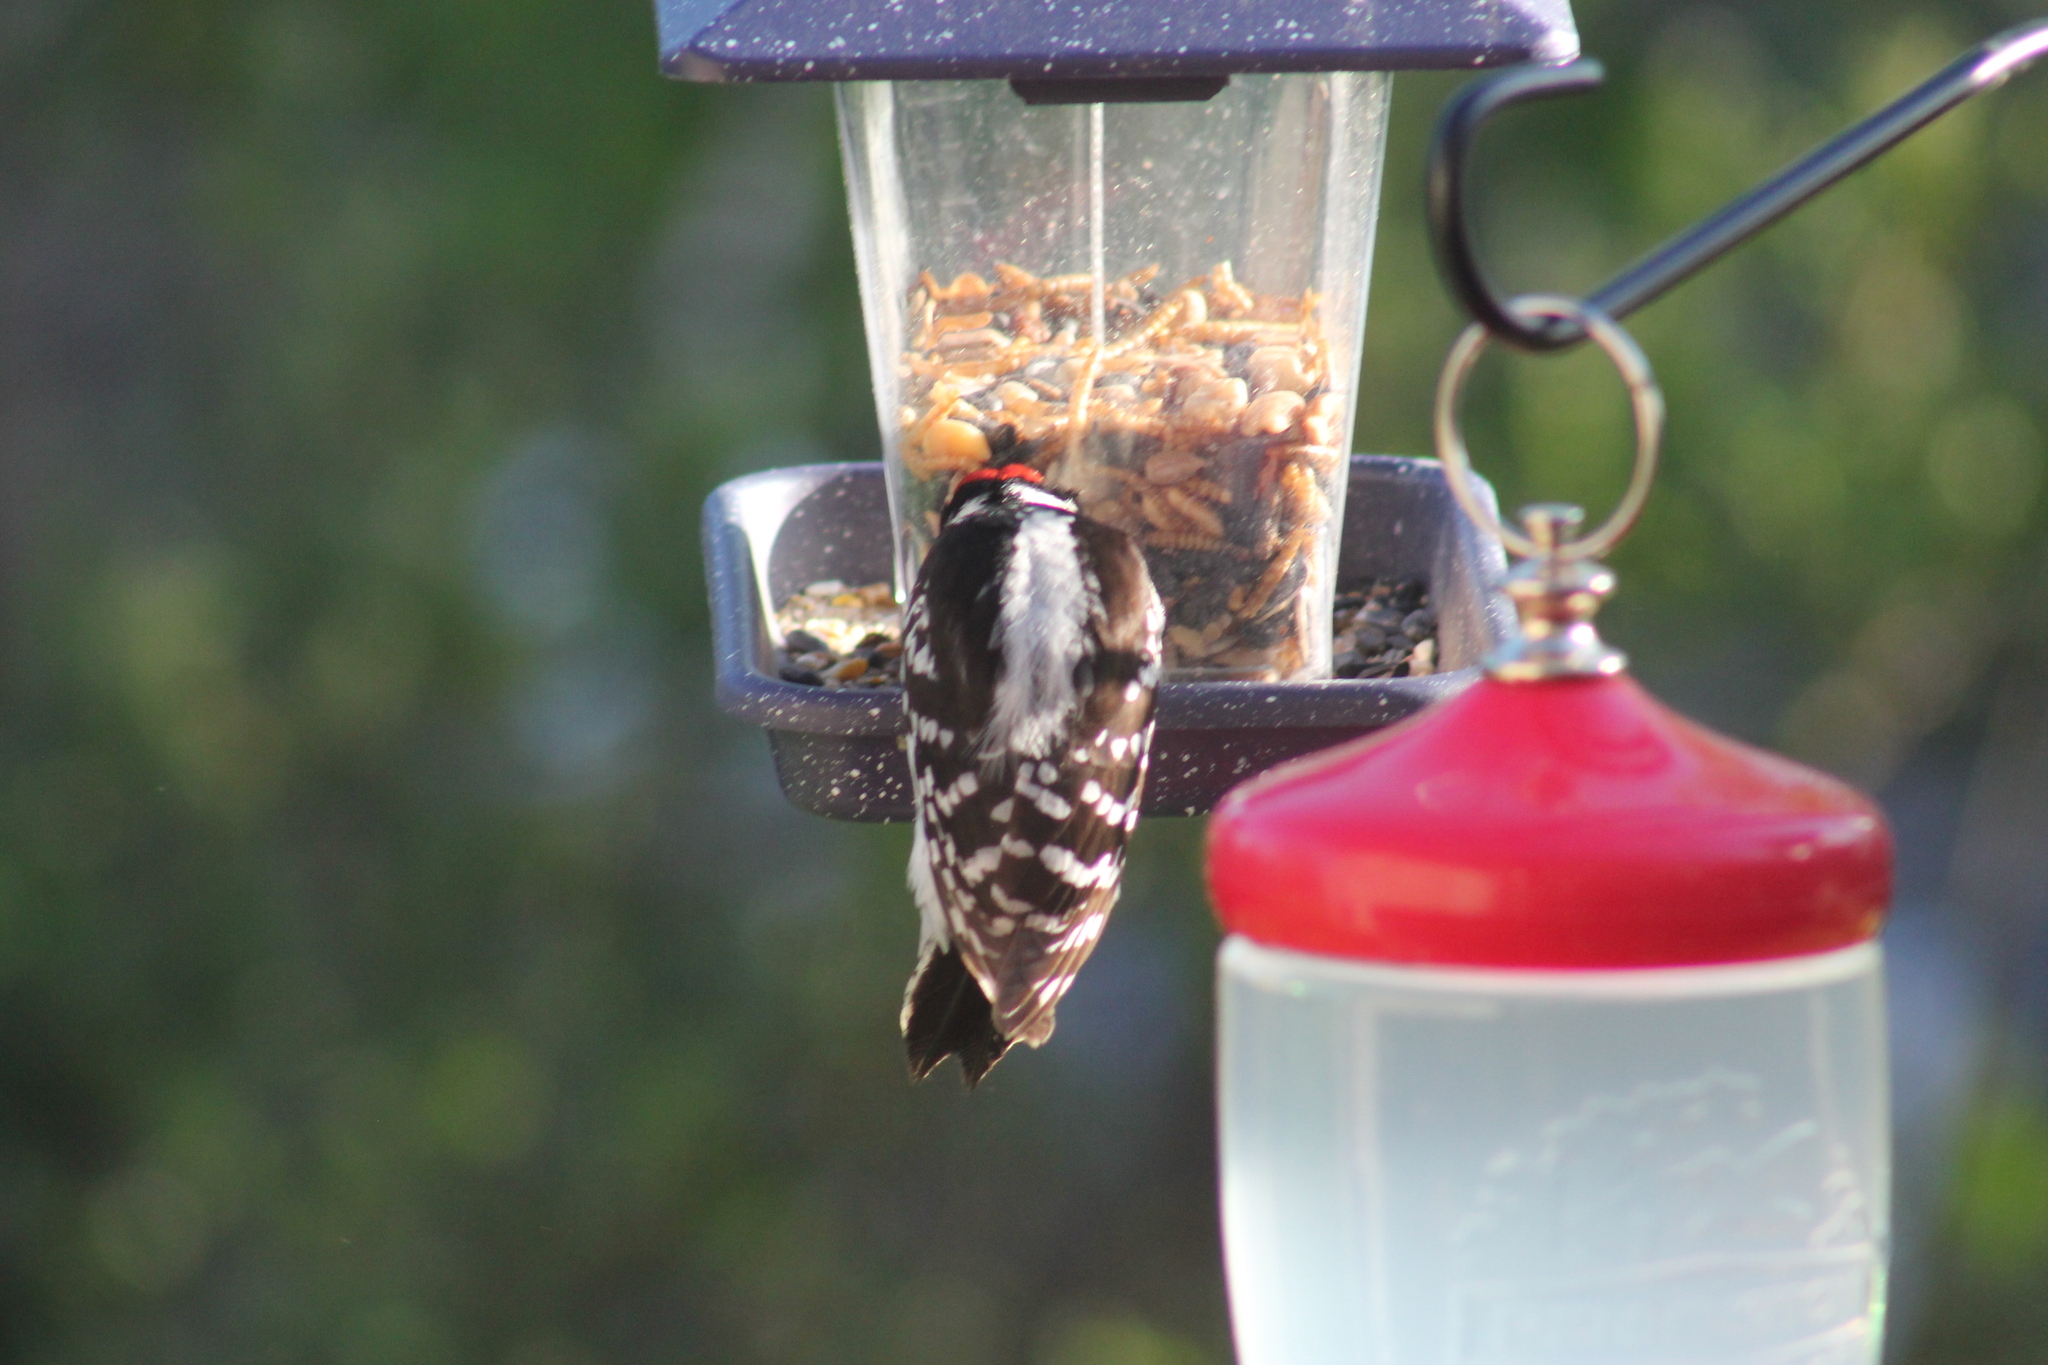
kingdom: Animalia
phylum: Chordata
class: Aves
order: Piciformes
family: Picidae
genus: Dryobates
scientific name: Dryobates pubescens
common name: Downy woodpecker
